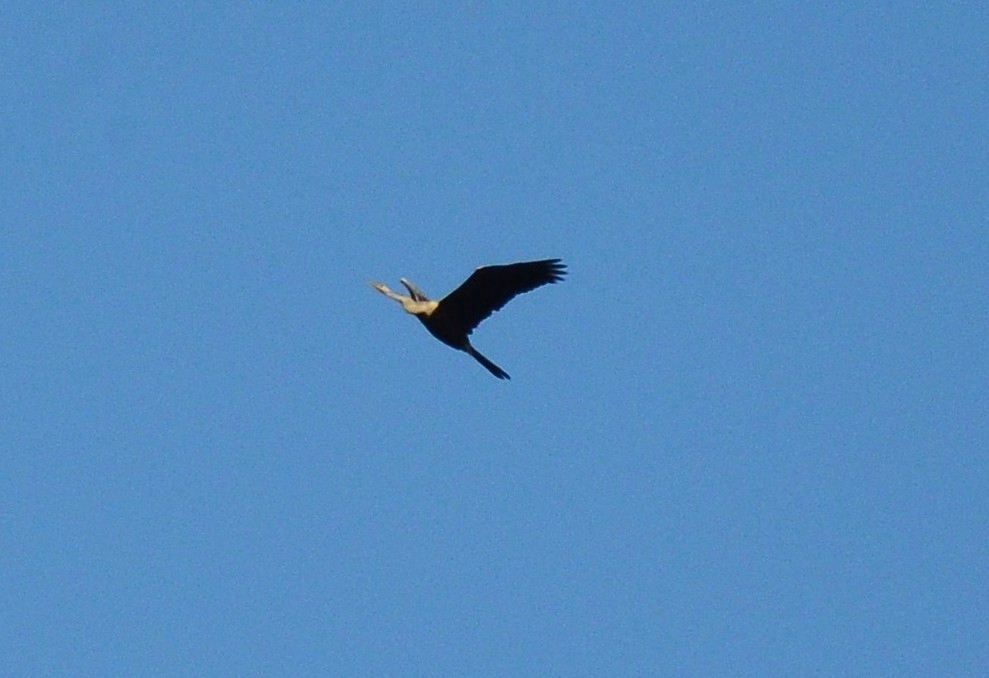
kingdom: Animalia
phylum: Chordata
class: Aves
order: Suliformes
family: Anhingidae
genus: Anhinga
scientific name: Anhinga melanogaster
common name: Oriental darter
